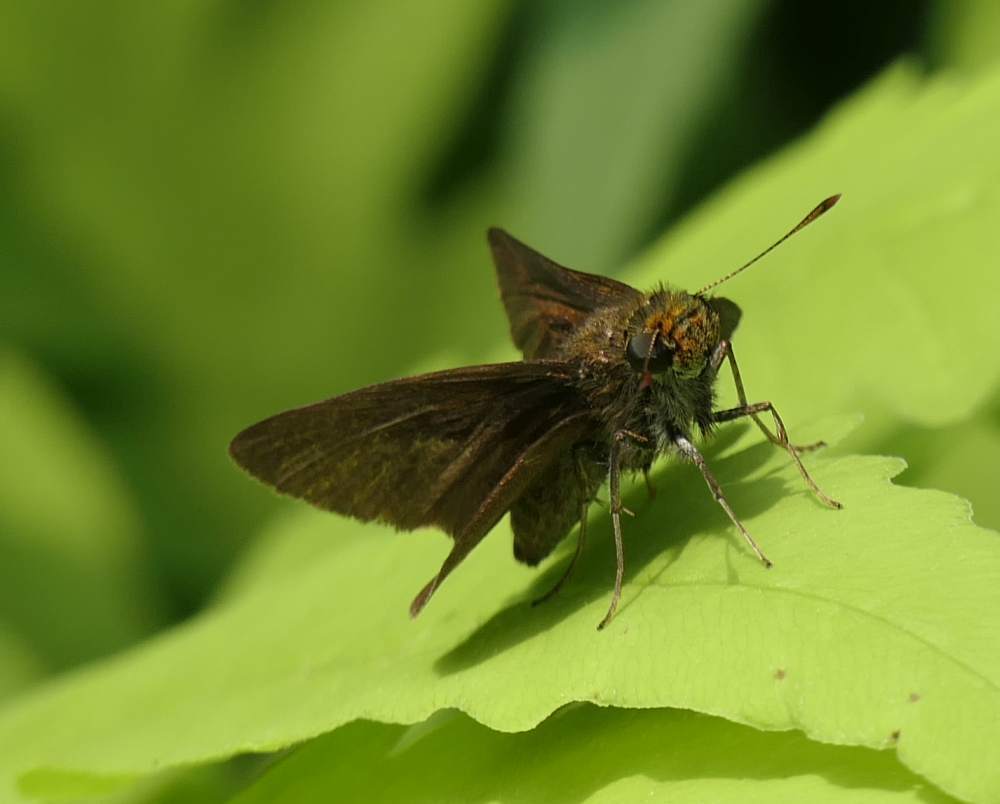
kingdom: Animalia
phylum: Arthropoda
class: Insecta
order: Lepidoptera
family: Hesperiidae
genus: Euphyes
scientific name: Euphyes vestris
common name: Dun skipper
